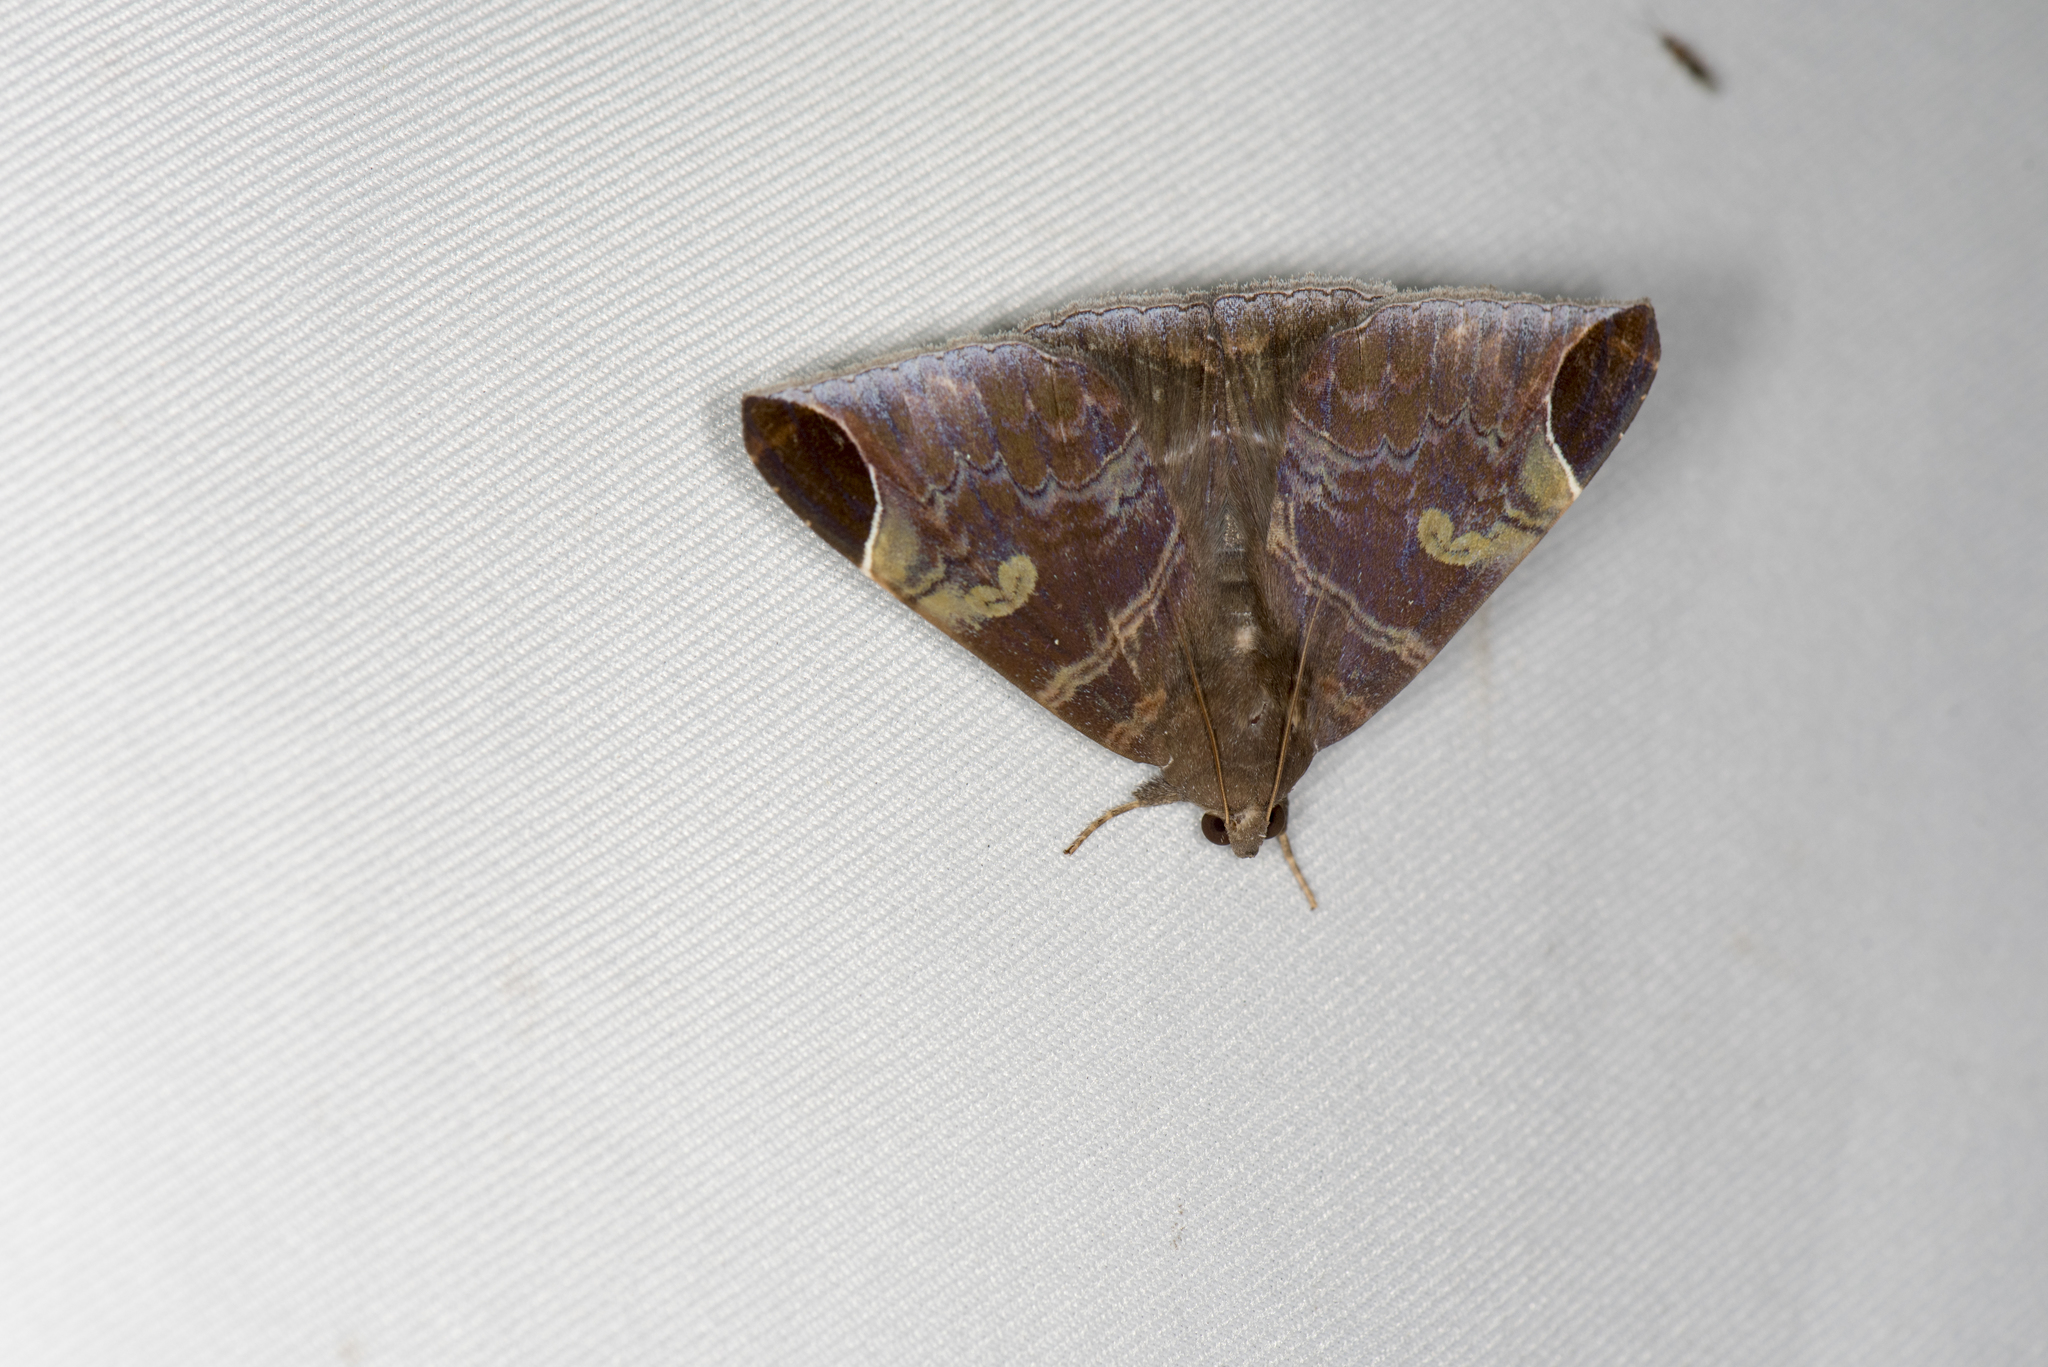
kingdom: Animalia
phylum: Arthropoda
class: Insecta
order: Lepidoptera
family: Erebidae
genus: Pindara
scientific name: Pindara illibata
